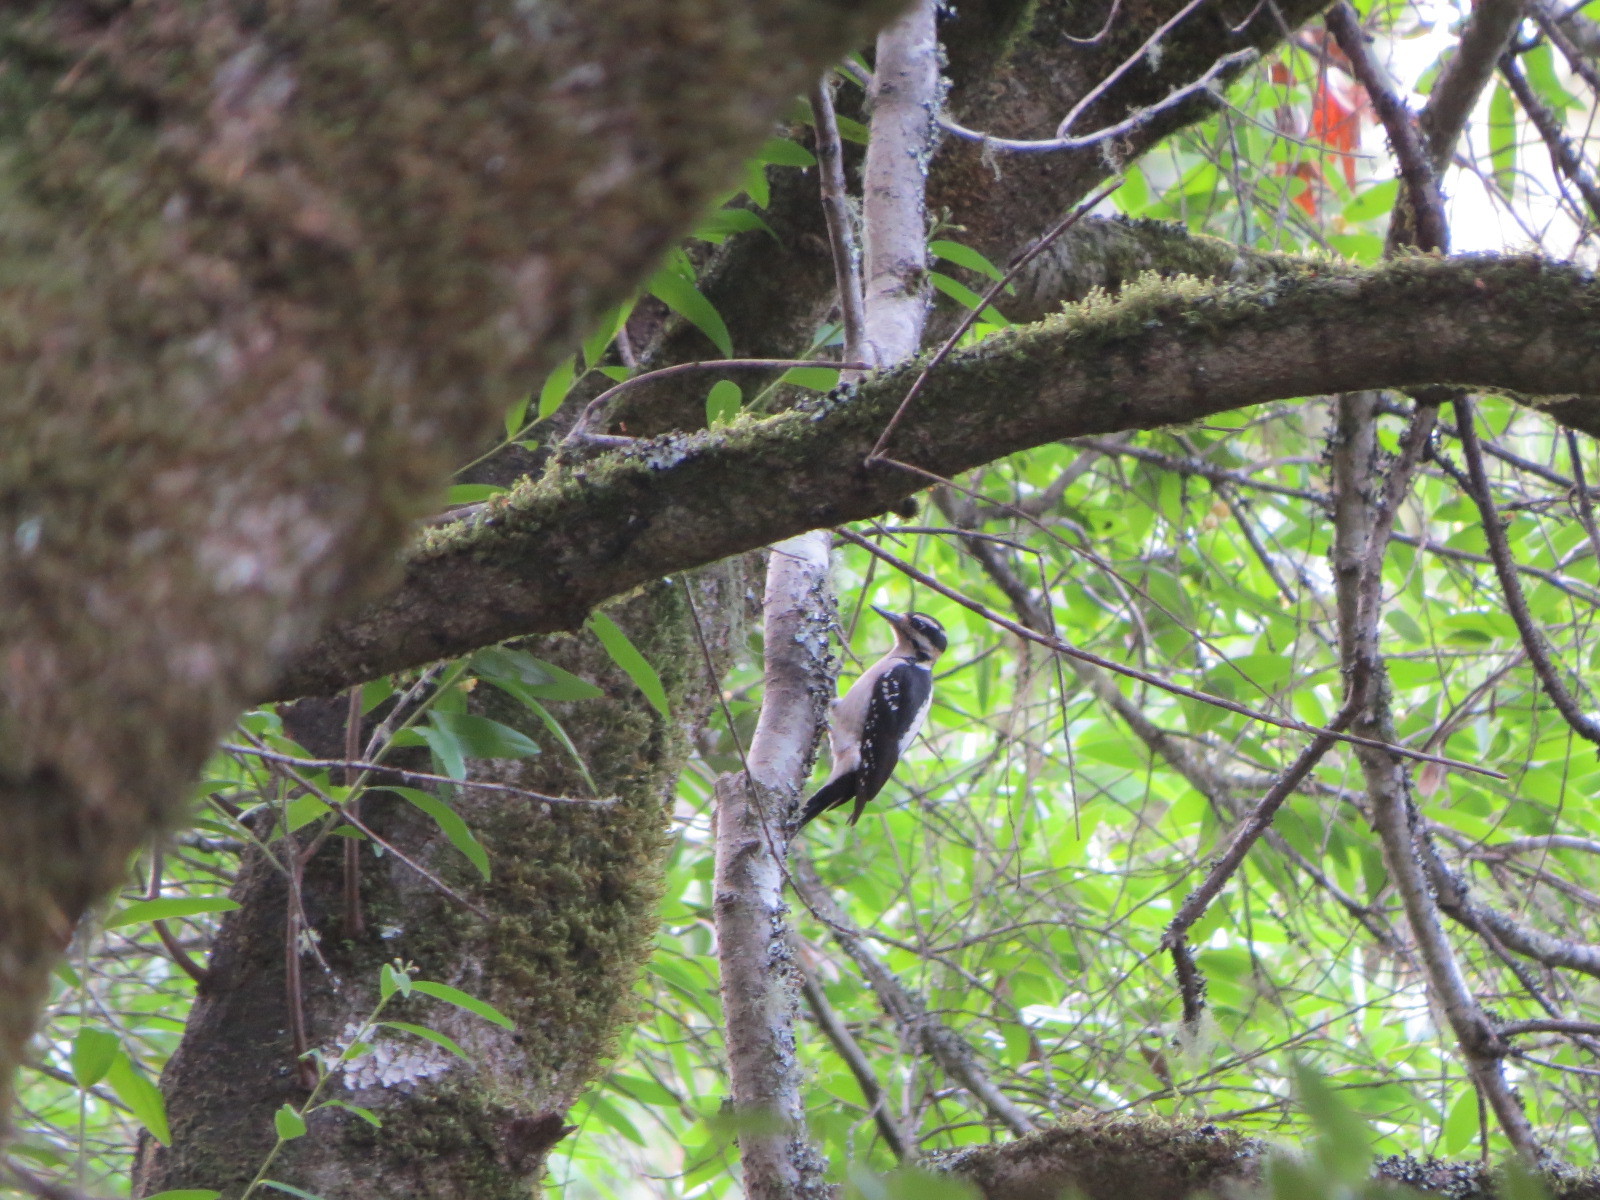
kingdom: Animalia
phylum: Chordata
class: Aves
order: Piciformes
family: Picidae
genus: Leuconotopicus
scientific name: Leuconotopicus villosus
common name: Hairy woodpecker
